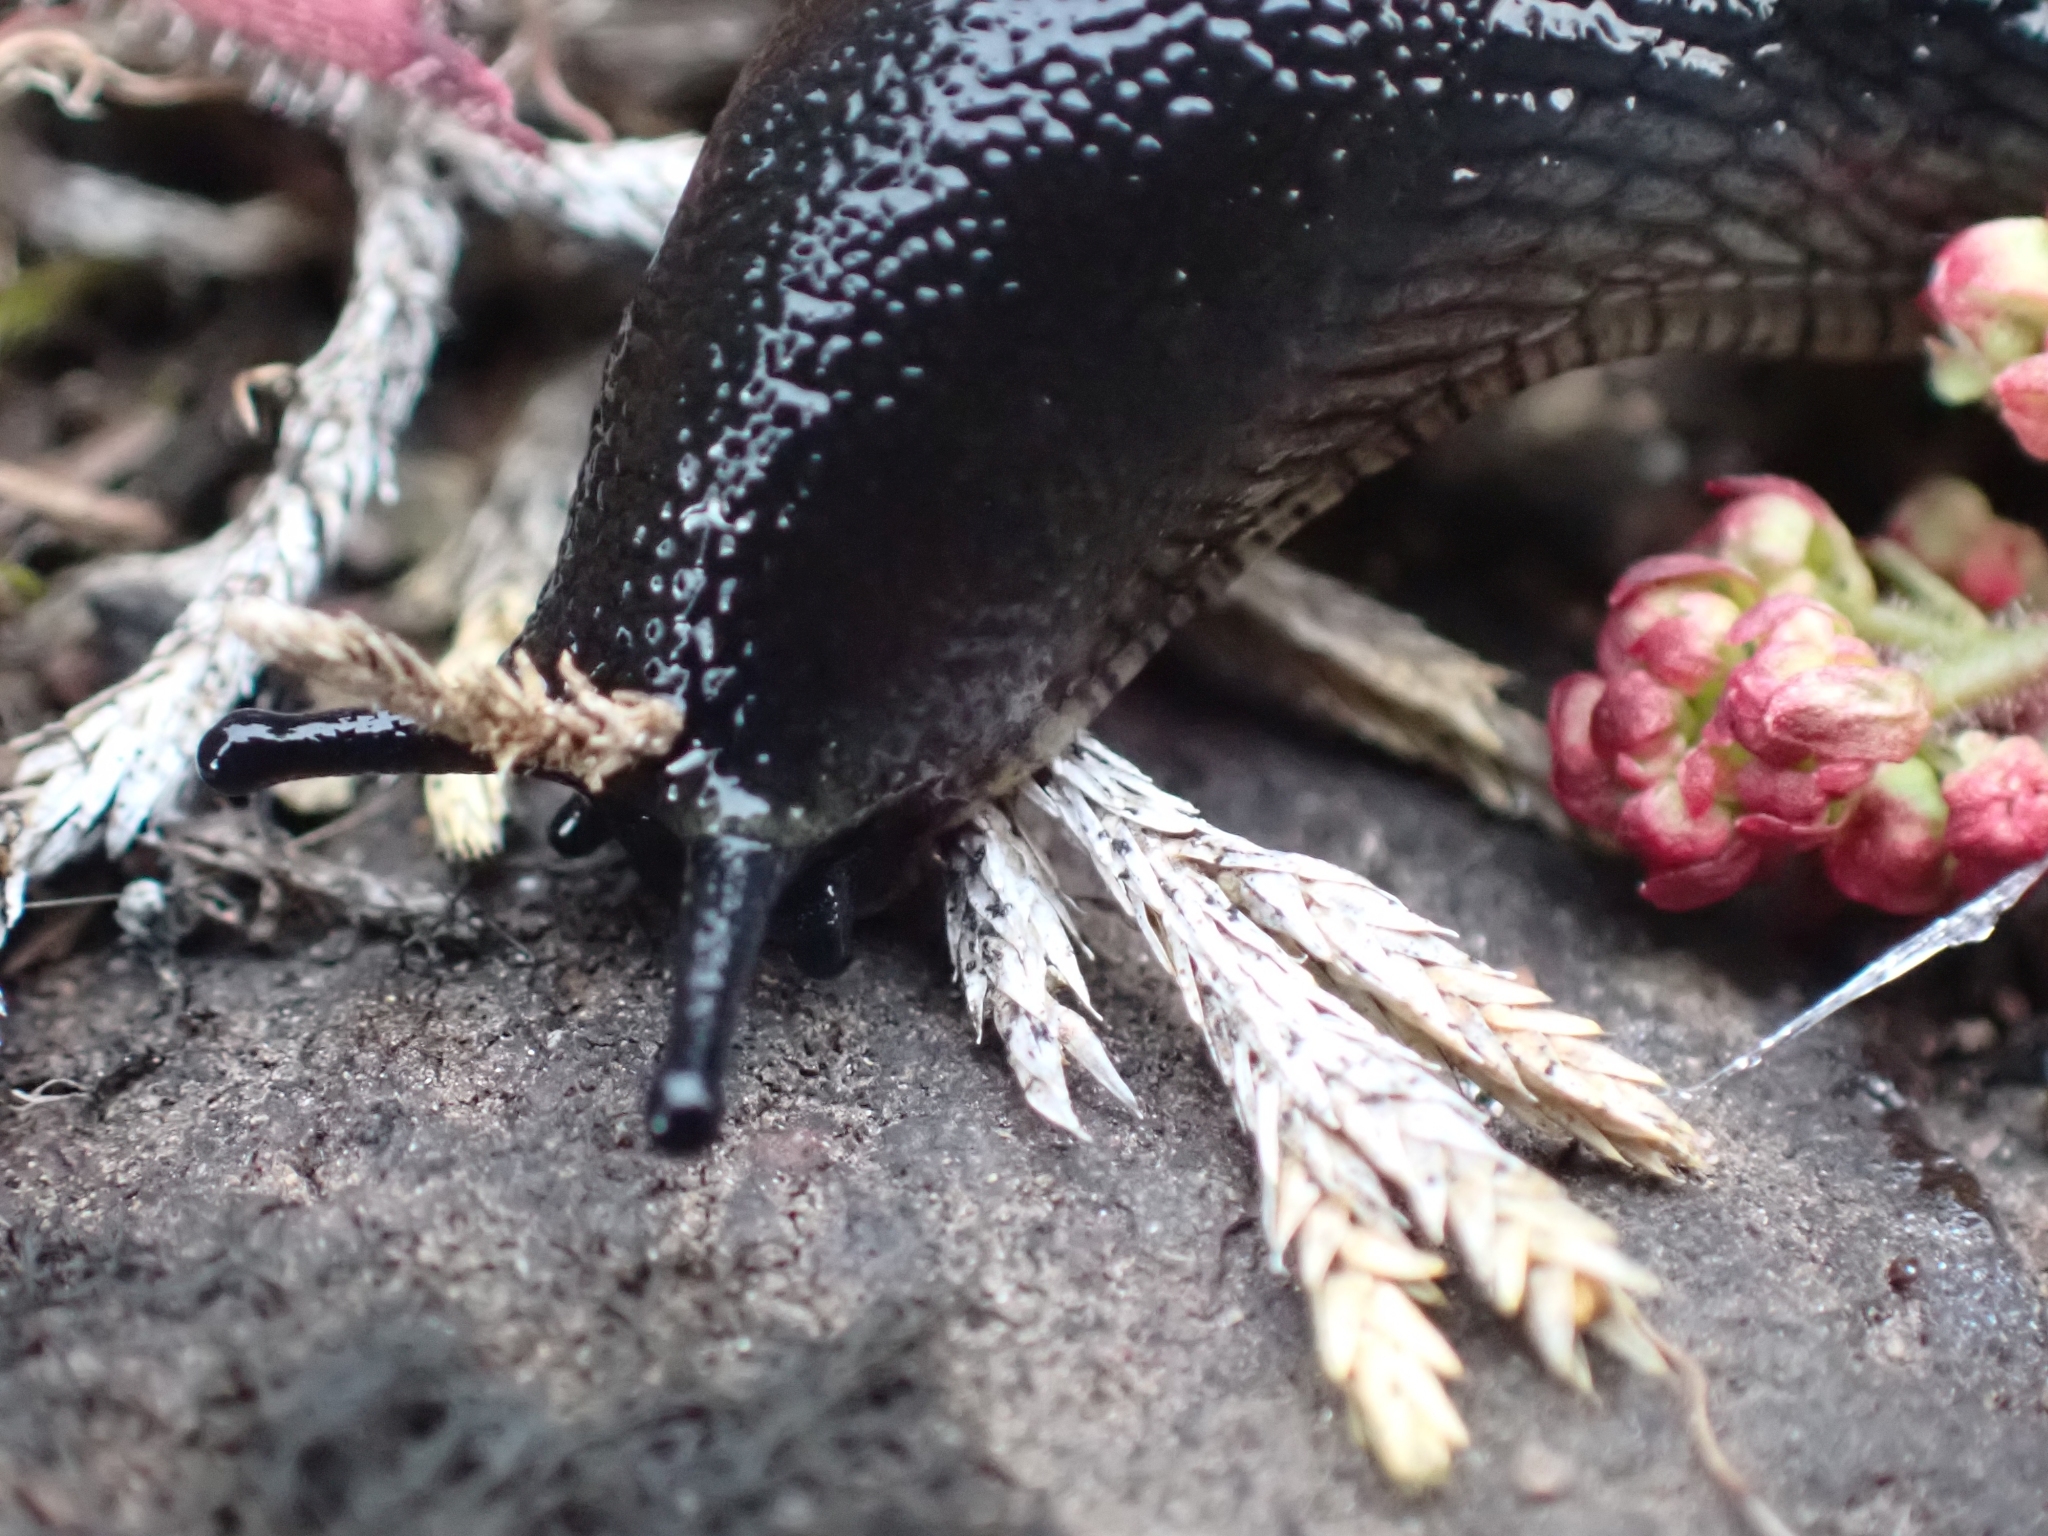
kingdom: Animalia
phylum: Mollusca
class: Gastropoda
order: Stylommatophora
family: Arionidae
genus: Arion
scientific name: Arion
